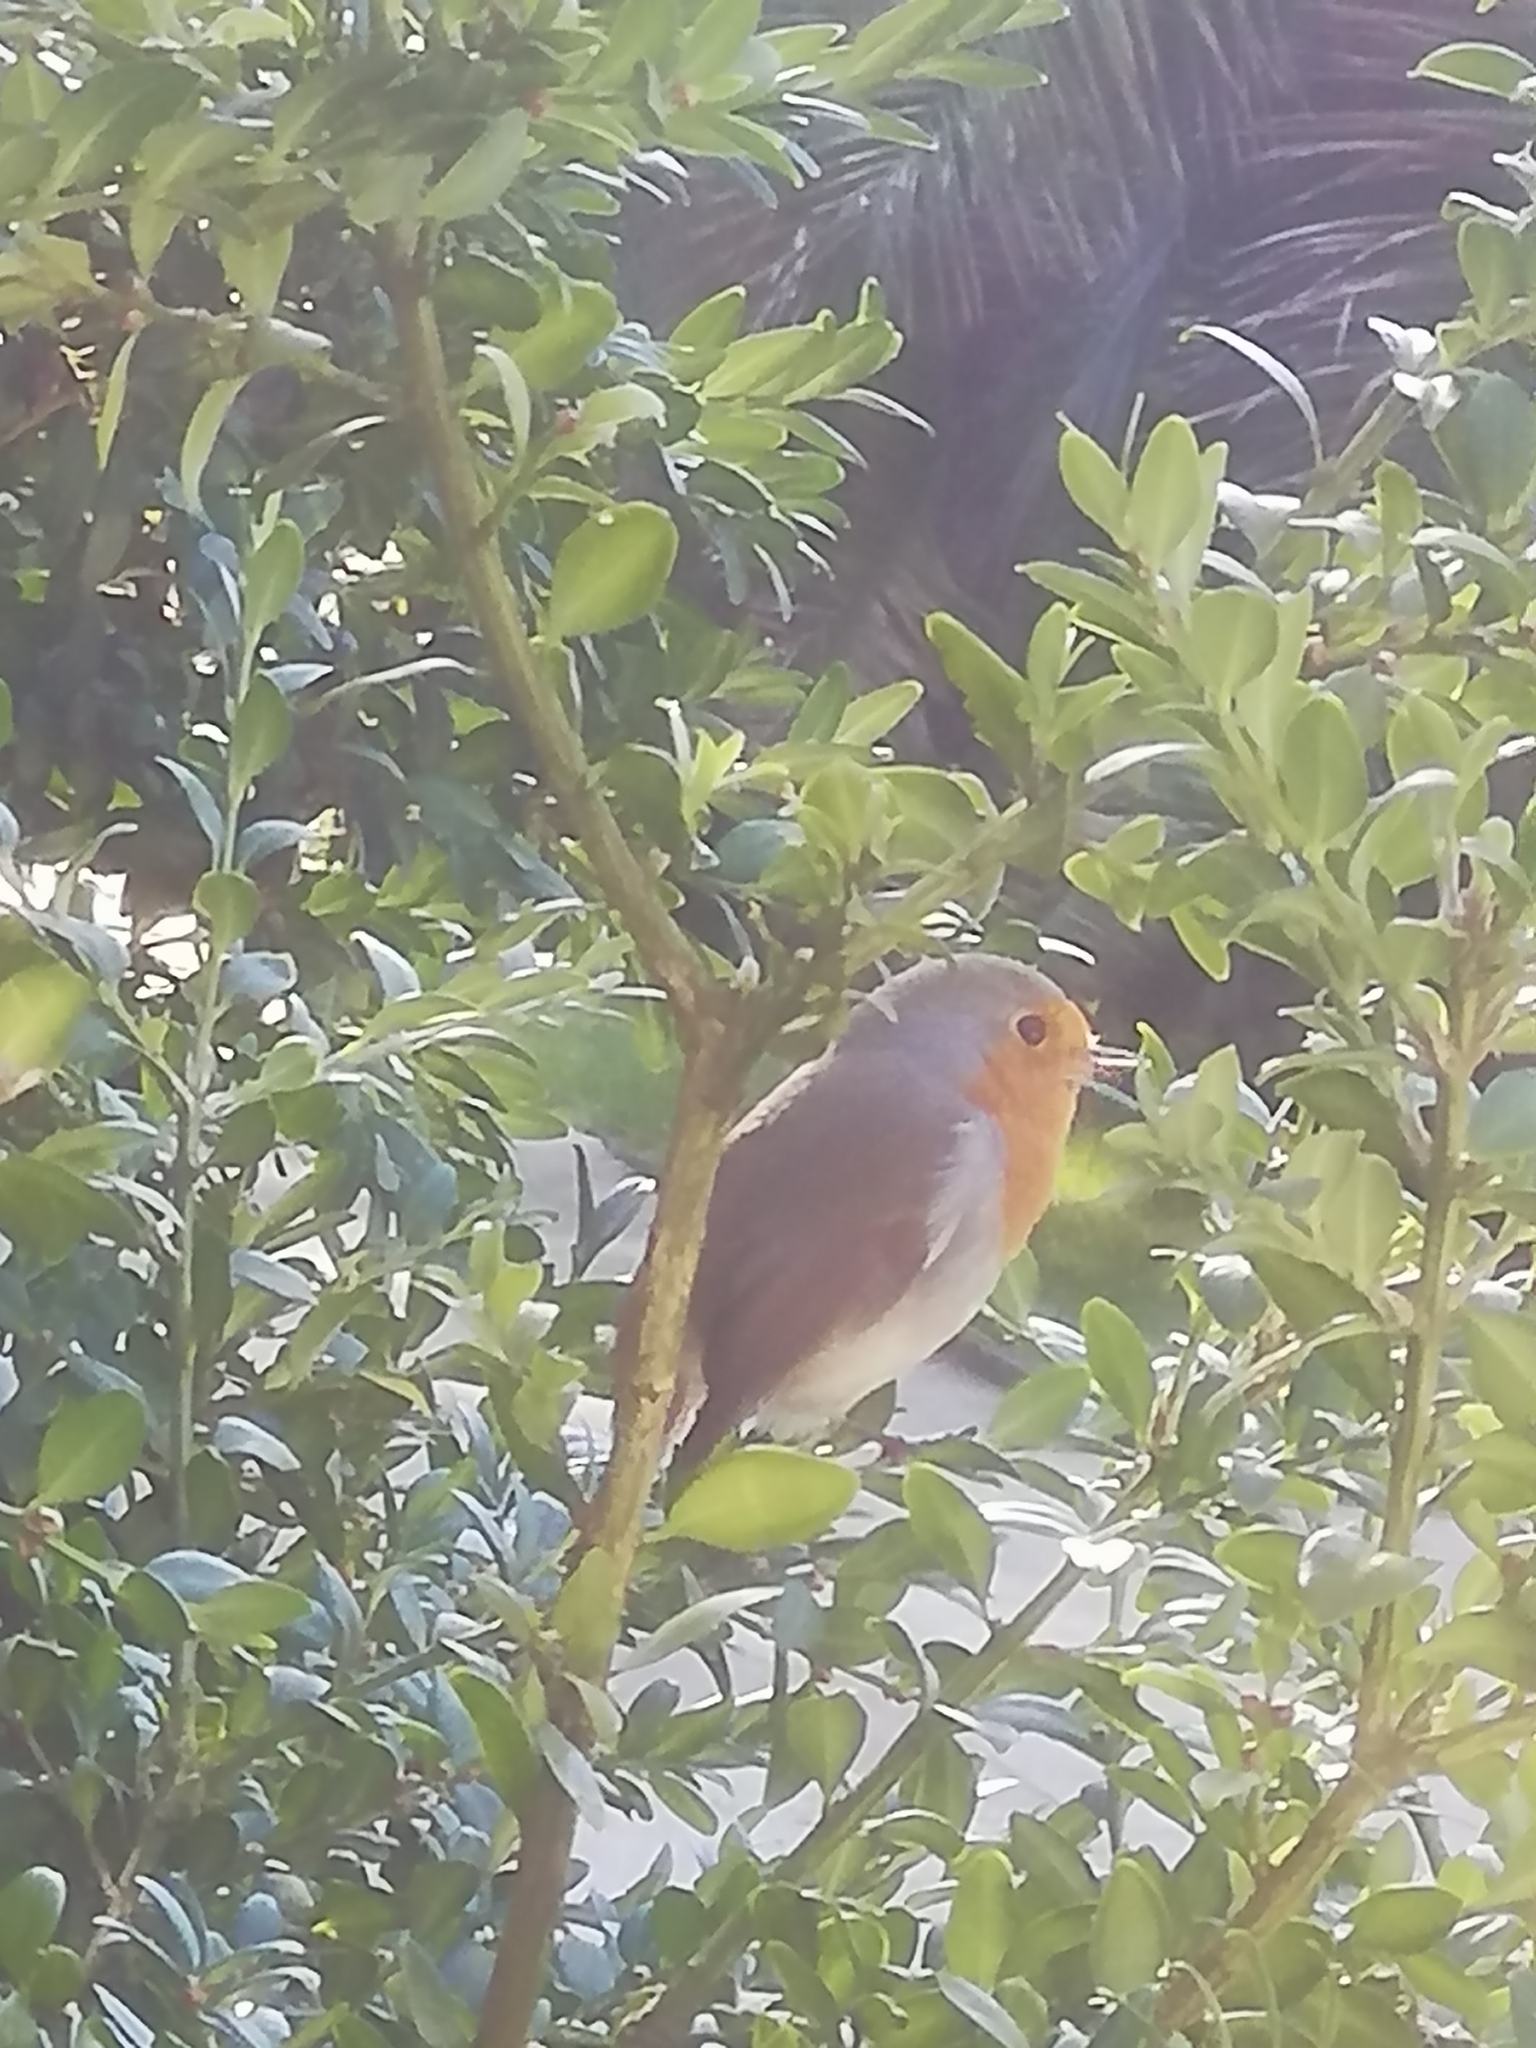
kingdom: Animalia
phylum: Chordata
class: Aves
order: Passeriformes
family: Muscicapidae
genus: Erithacus
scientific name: Erithacus rubecula
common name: European robin
